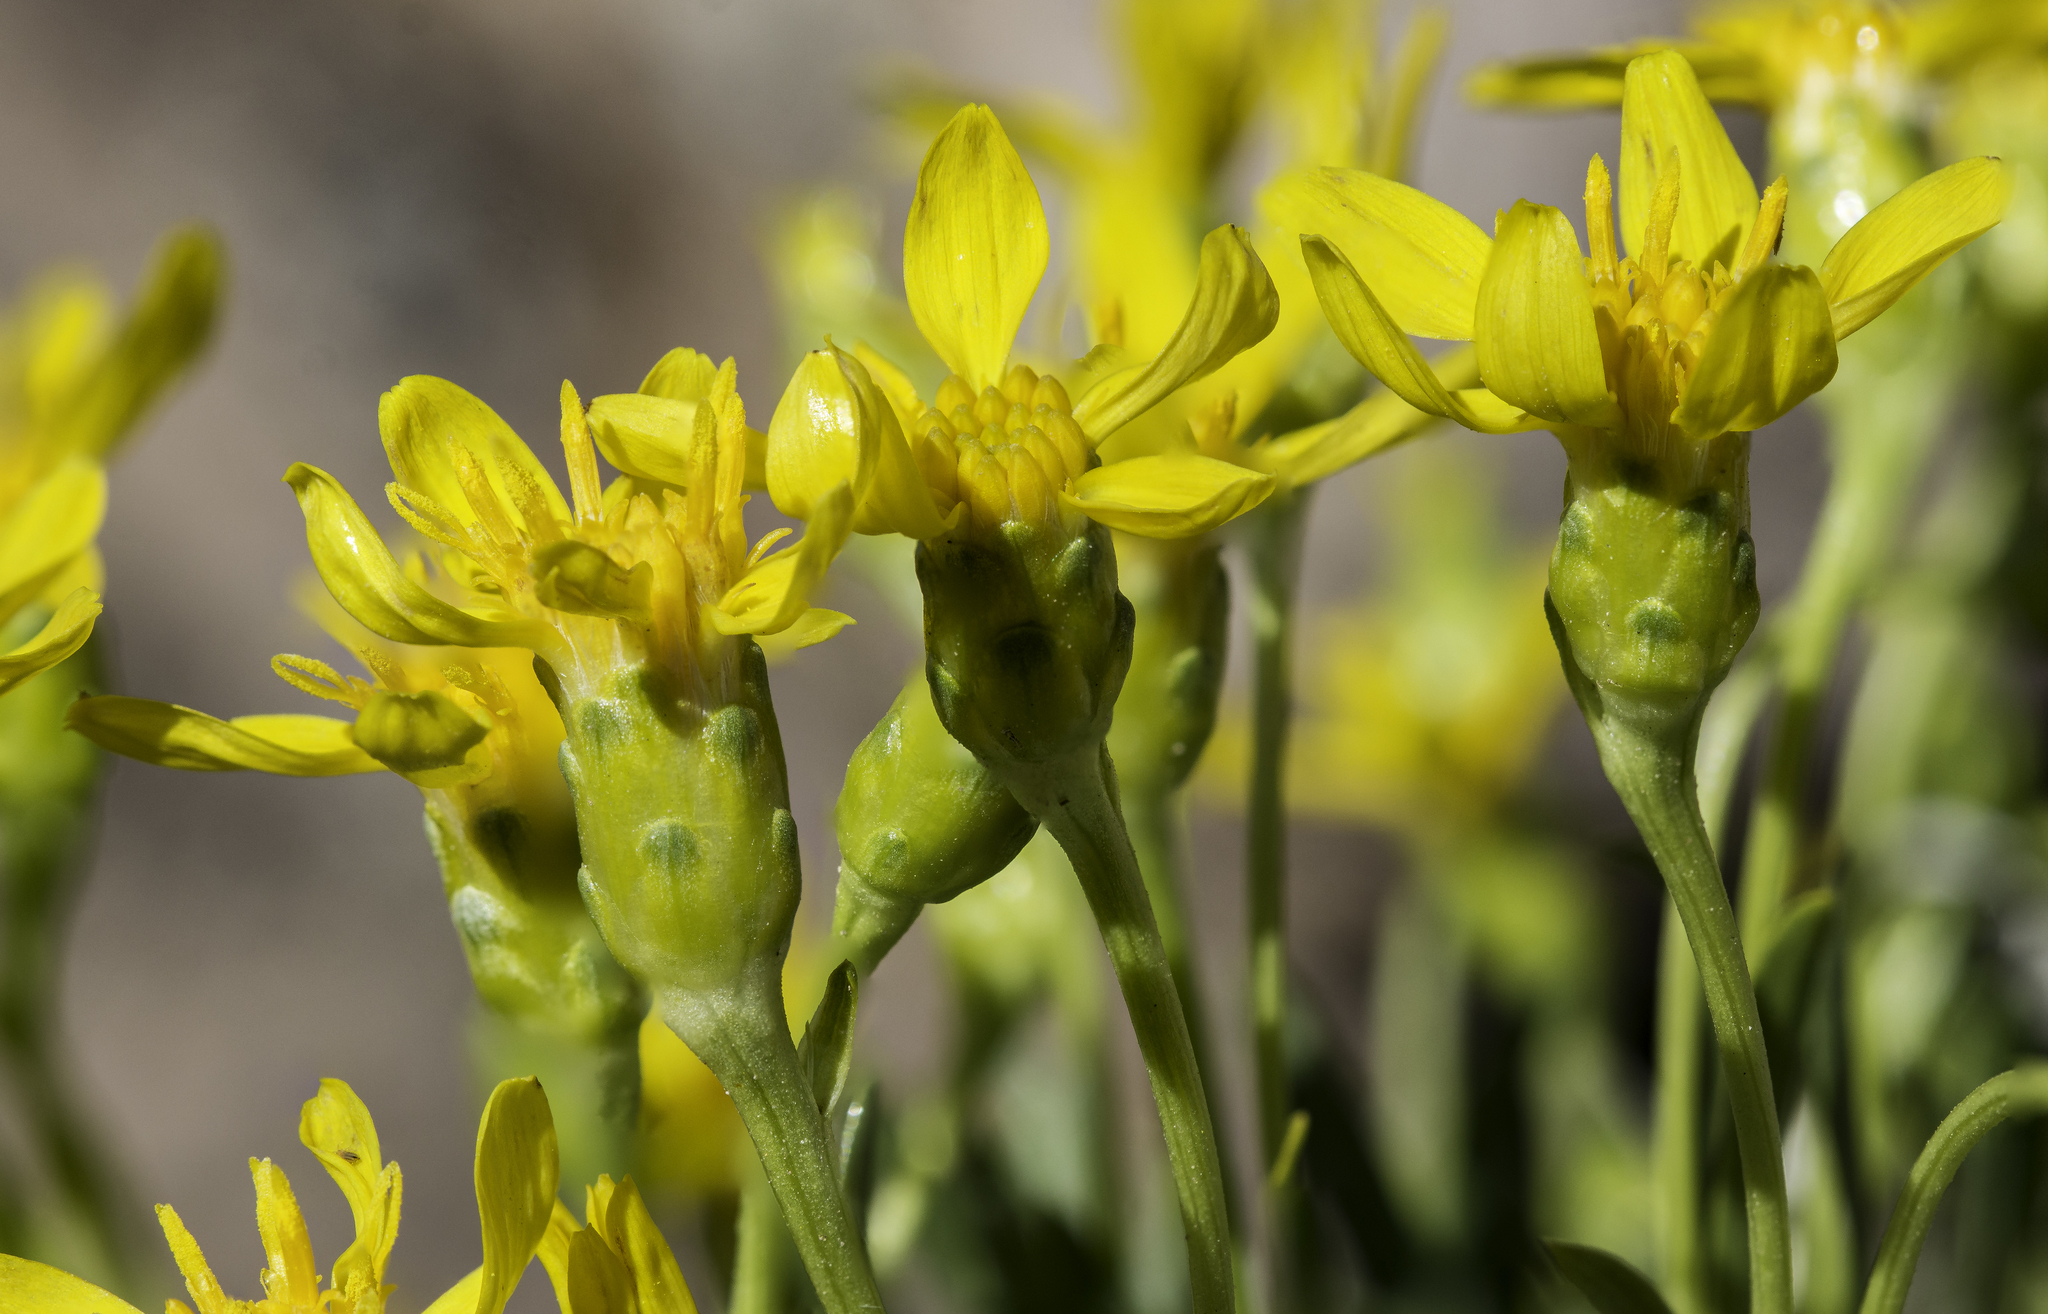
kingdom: Plantae
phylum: Tracheophyta
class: Magnoliopsida
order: Asterales
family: Asteraceae
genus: Stenotus
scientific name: Stenotus armerioides
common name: Thrifty goldenweed
